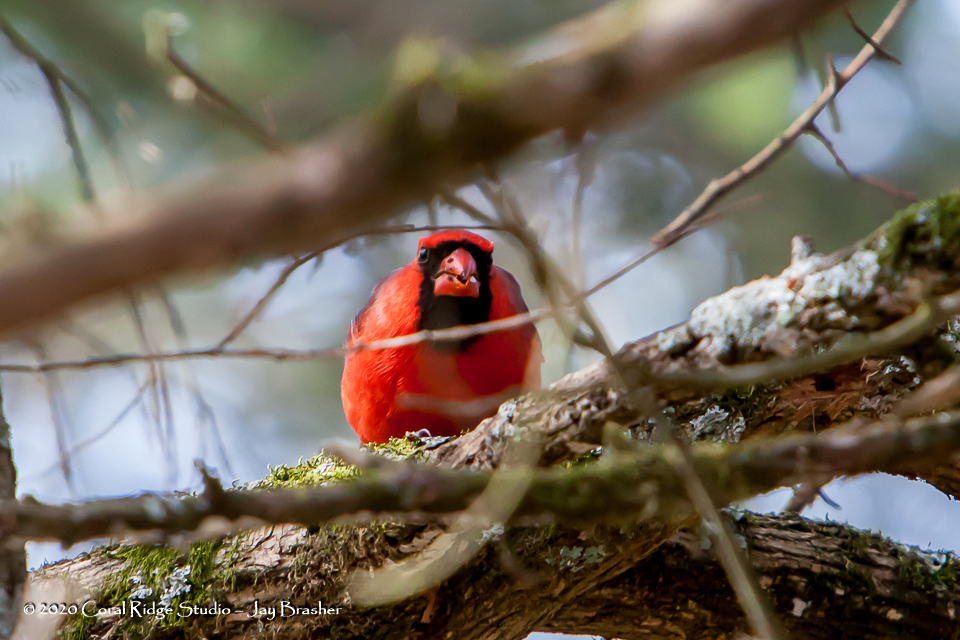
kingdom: Animalia
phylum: Chordata
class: Aves
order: Passeriformes
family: Cardinalidae
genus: Cardinalis
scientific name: Cardinalis cardinalis
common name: Northern cardinal
